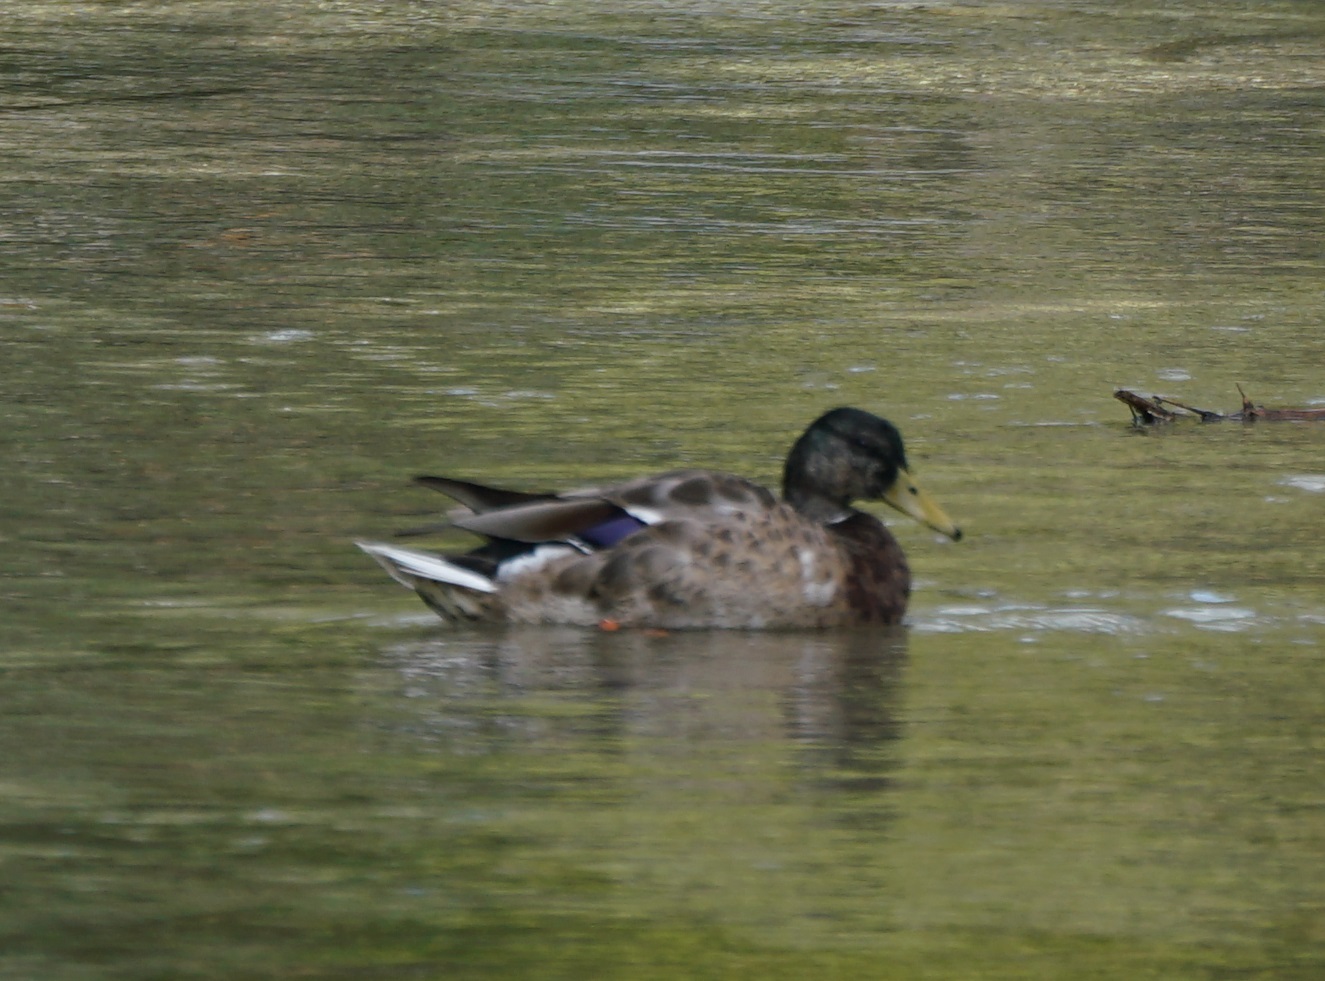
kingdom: Animalia
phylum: Chordata
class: Aves
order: Anseriformes
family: Anatidae
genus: Anas
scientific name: Anas platyrhynchos
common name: Mallard
